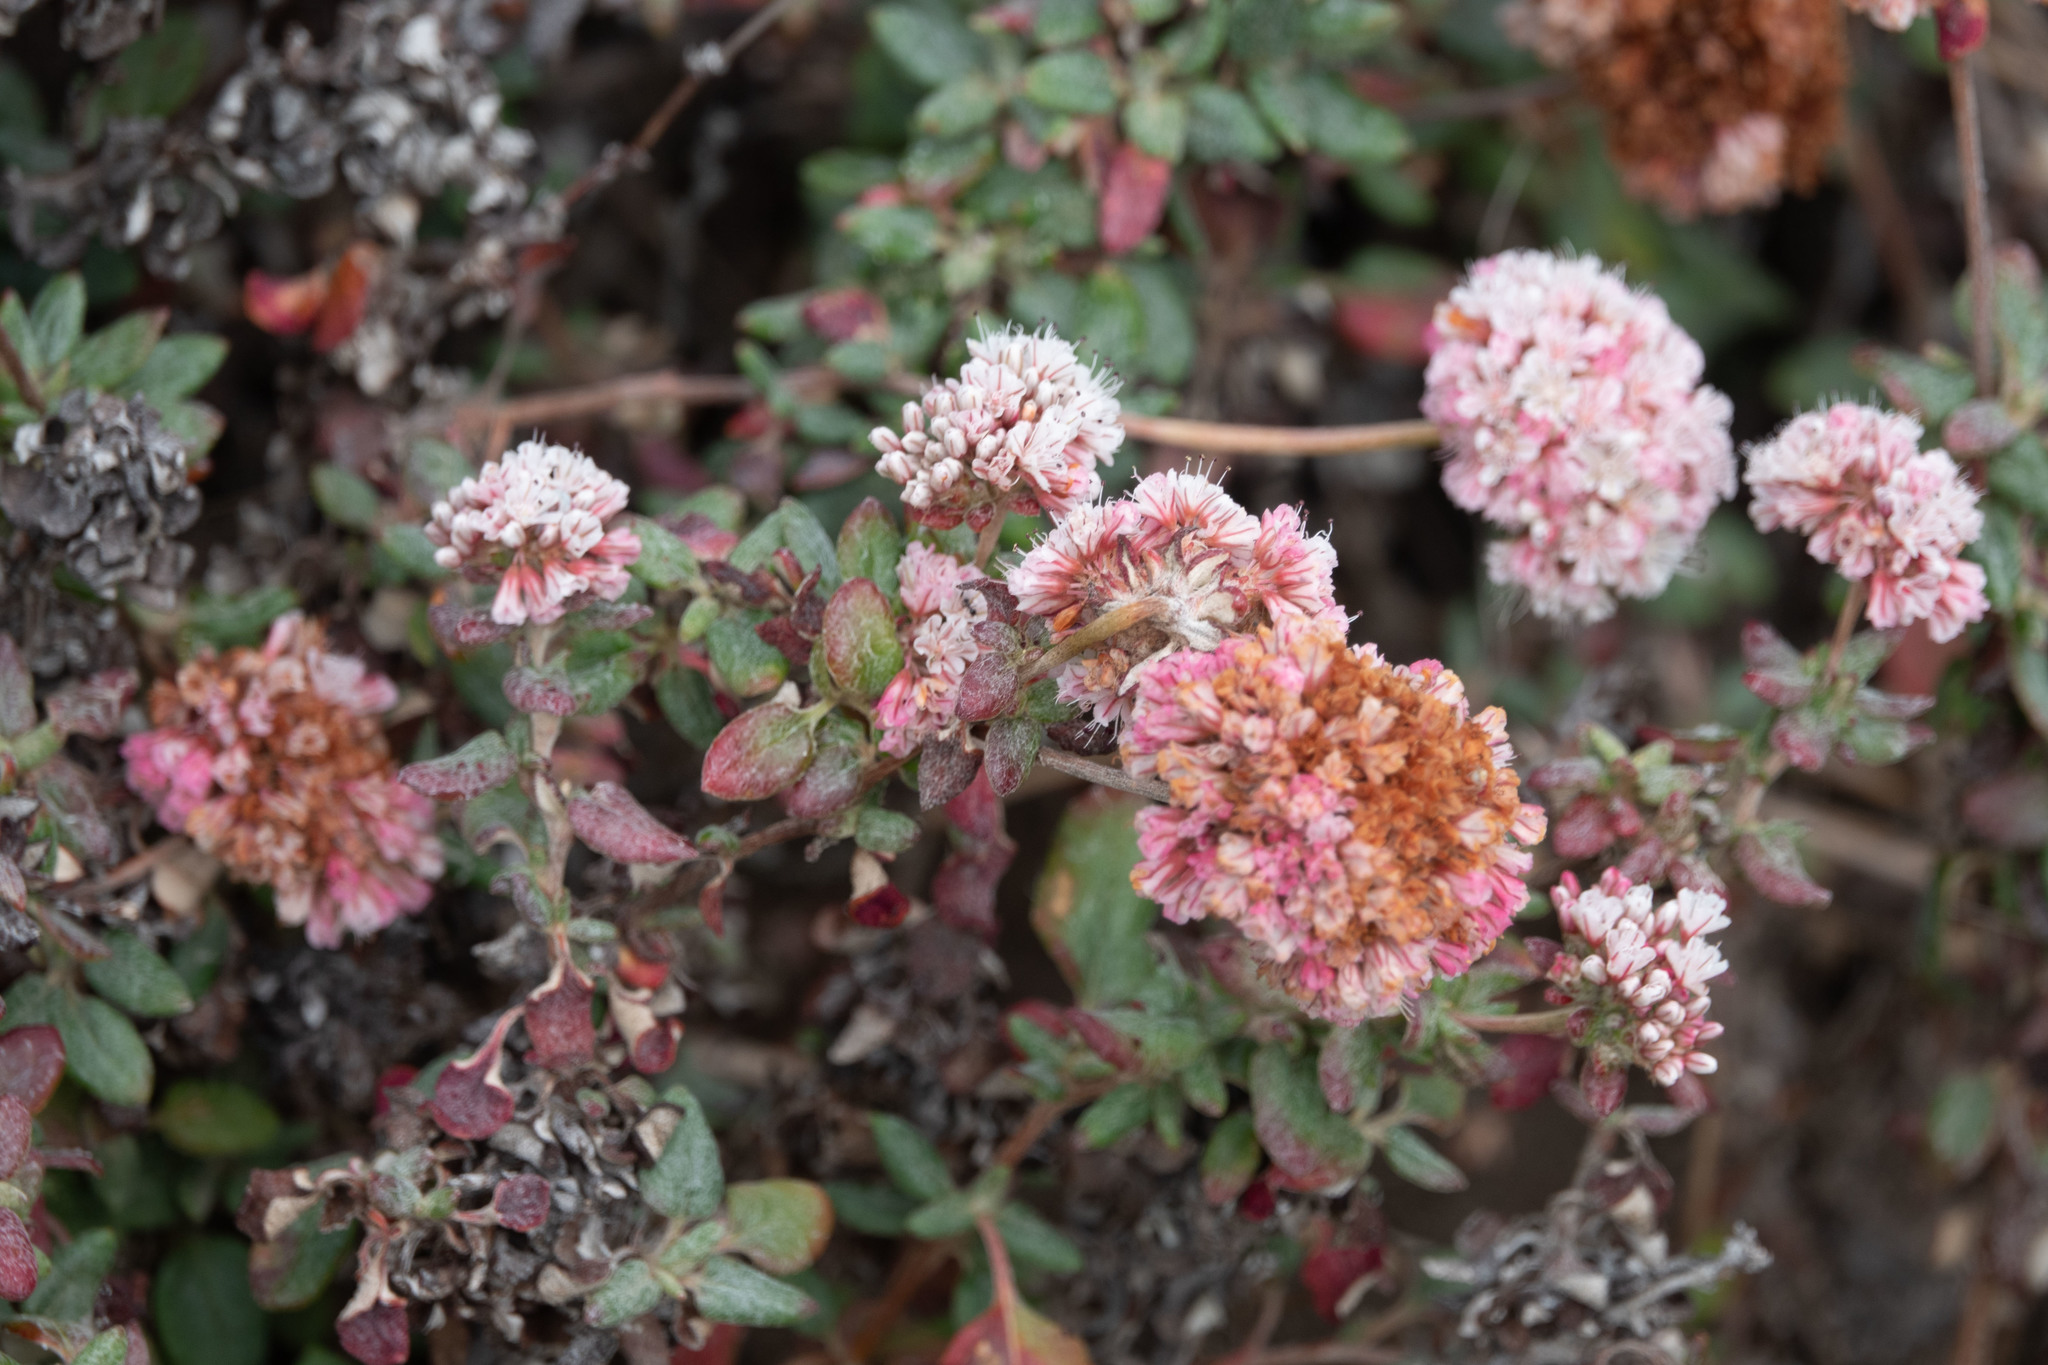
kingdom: Plantae
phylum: Tracheophyta
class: Magnoliopsida
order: Caryophyllales
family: Polygonaceae
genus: Eriogonum
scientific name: Eriogonum parvifolium
